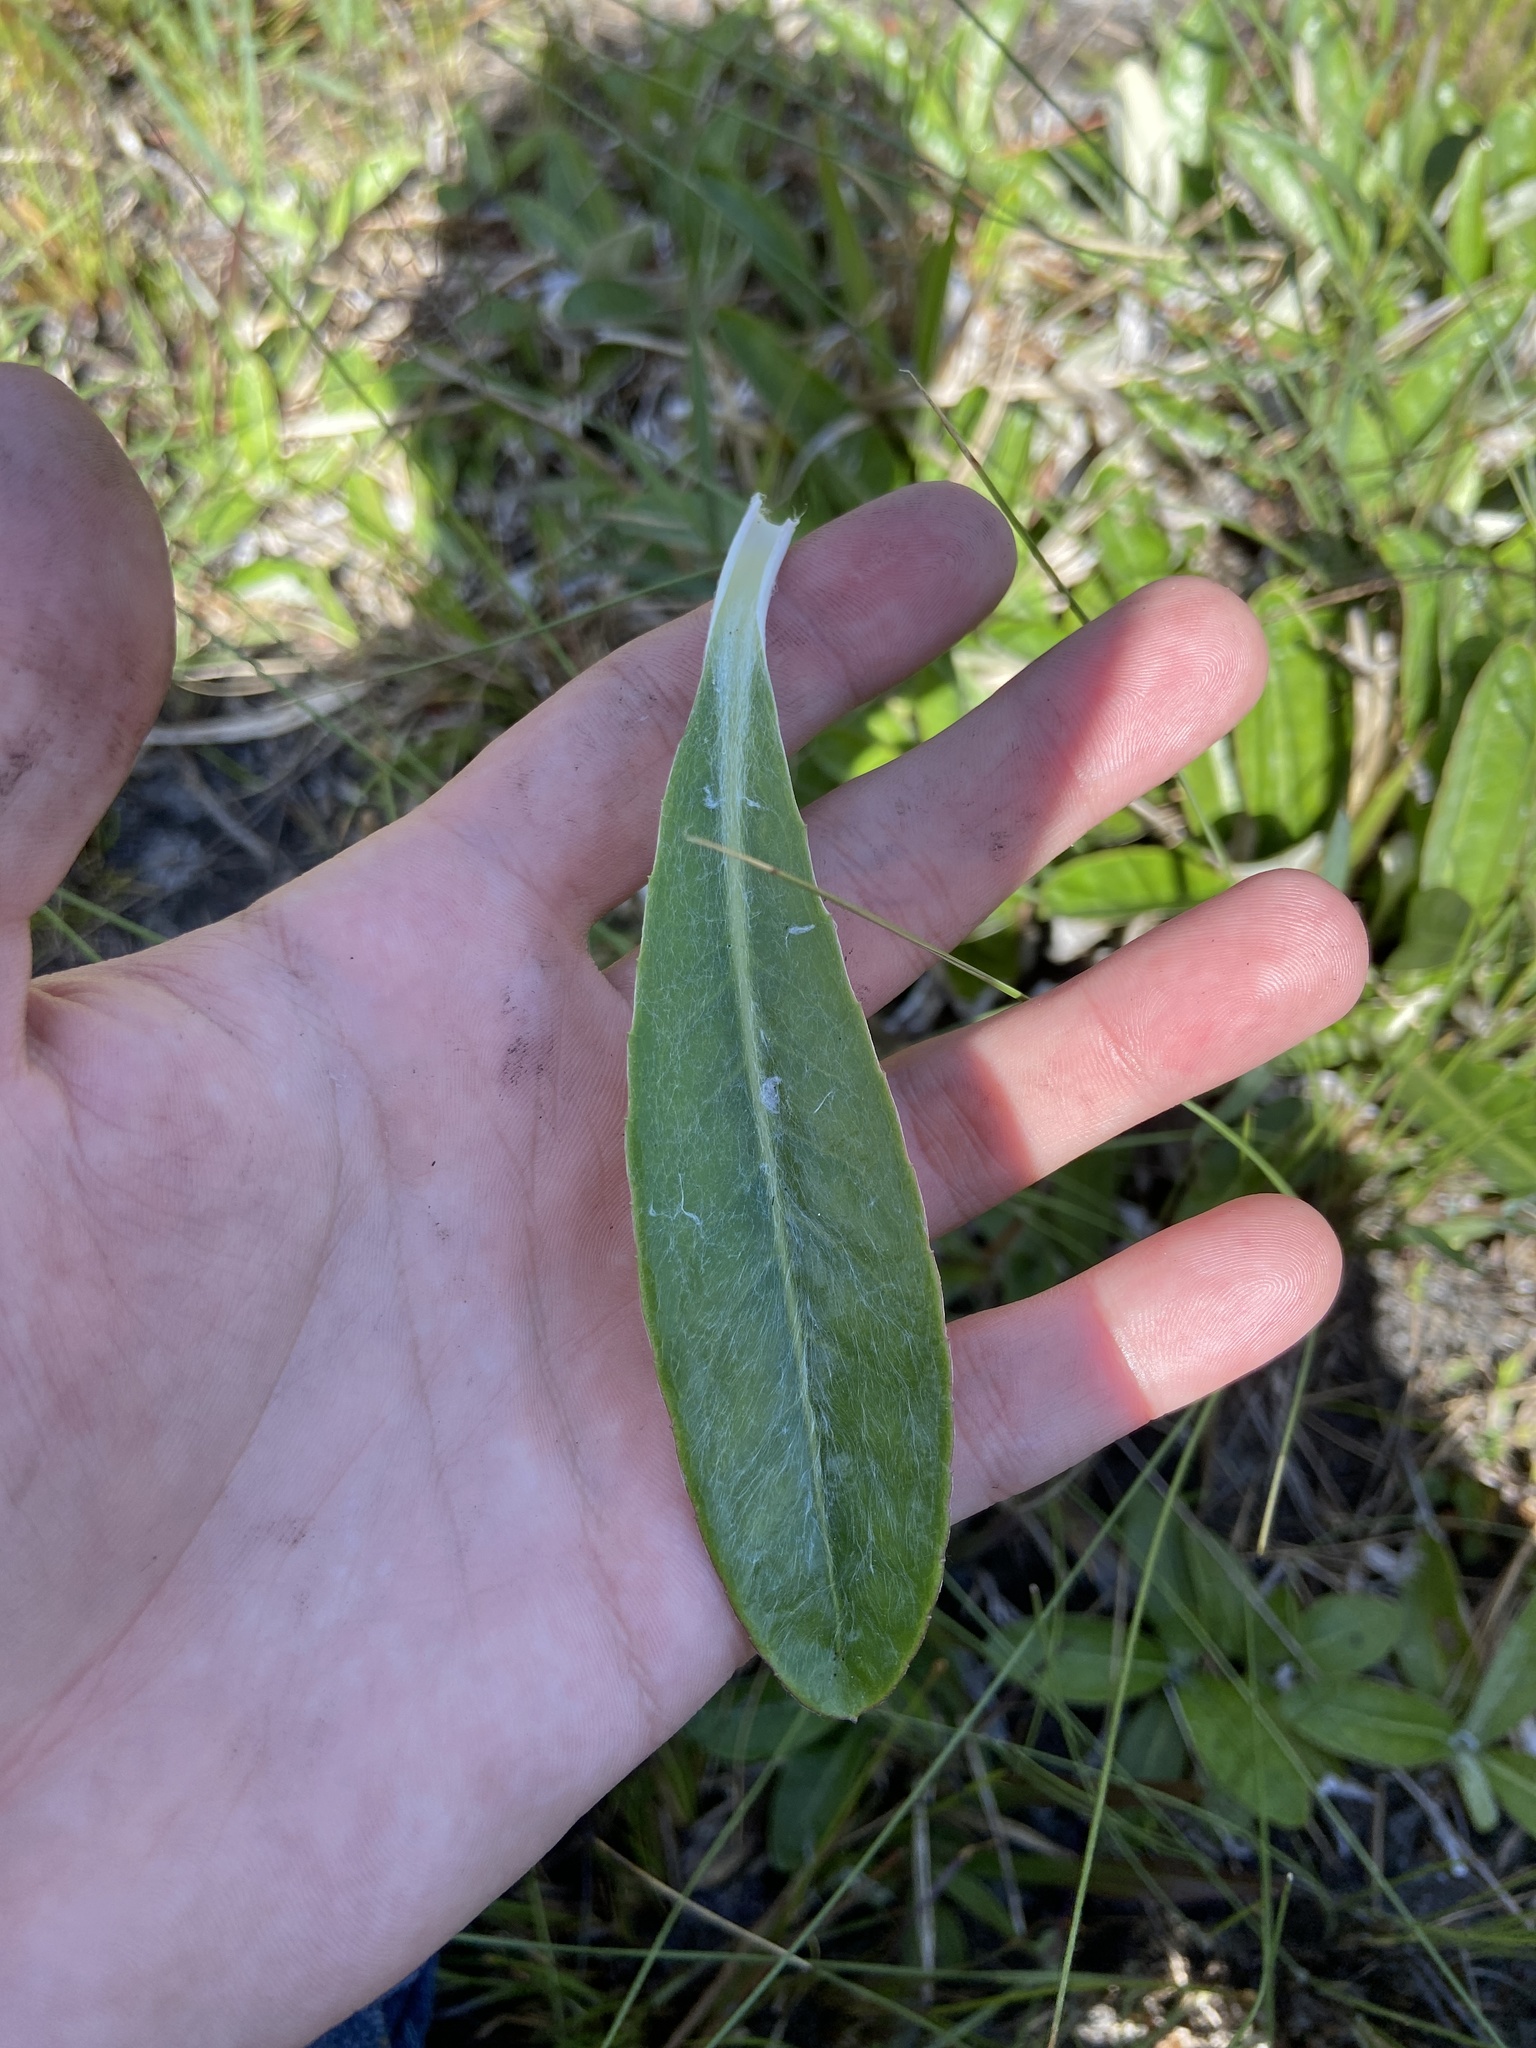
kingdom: Plantae
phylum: Tracheophyta
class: Magnoliopsida
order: Asterales
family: Asteraceae
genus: Chaptalia
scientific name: Chaptalia tomentosa
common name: Woolly sunbonnet
